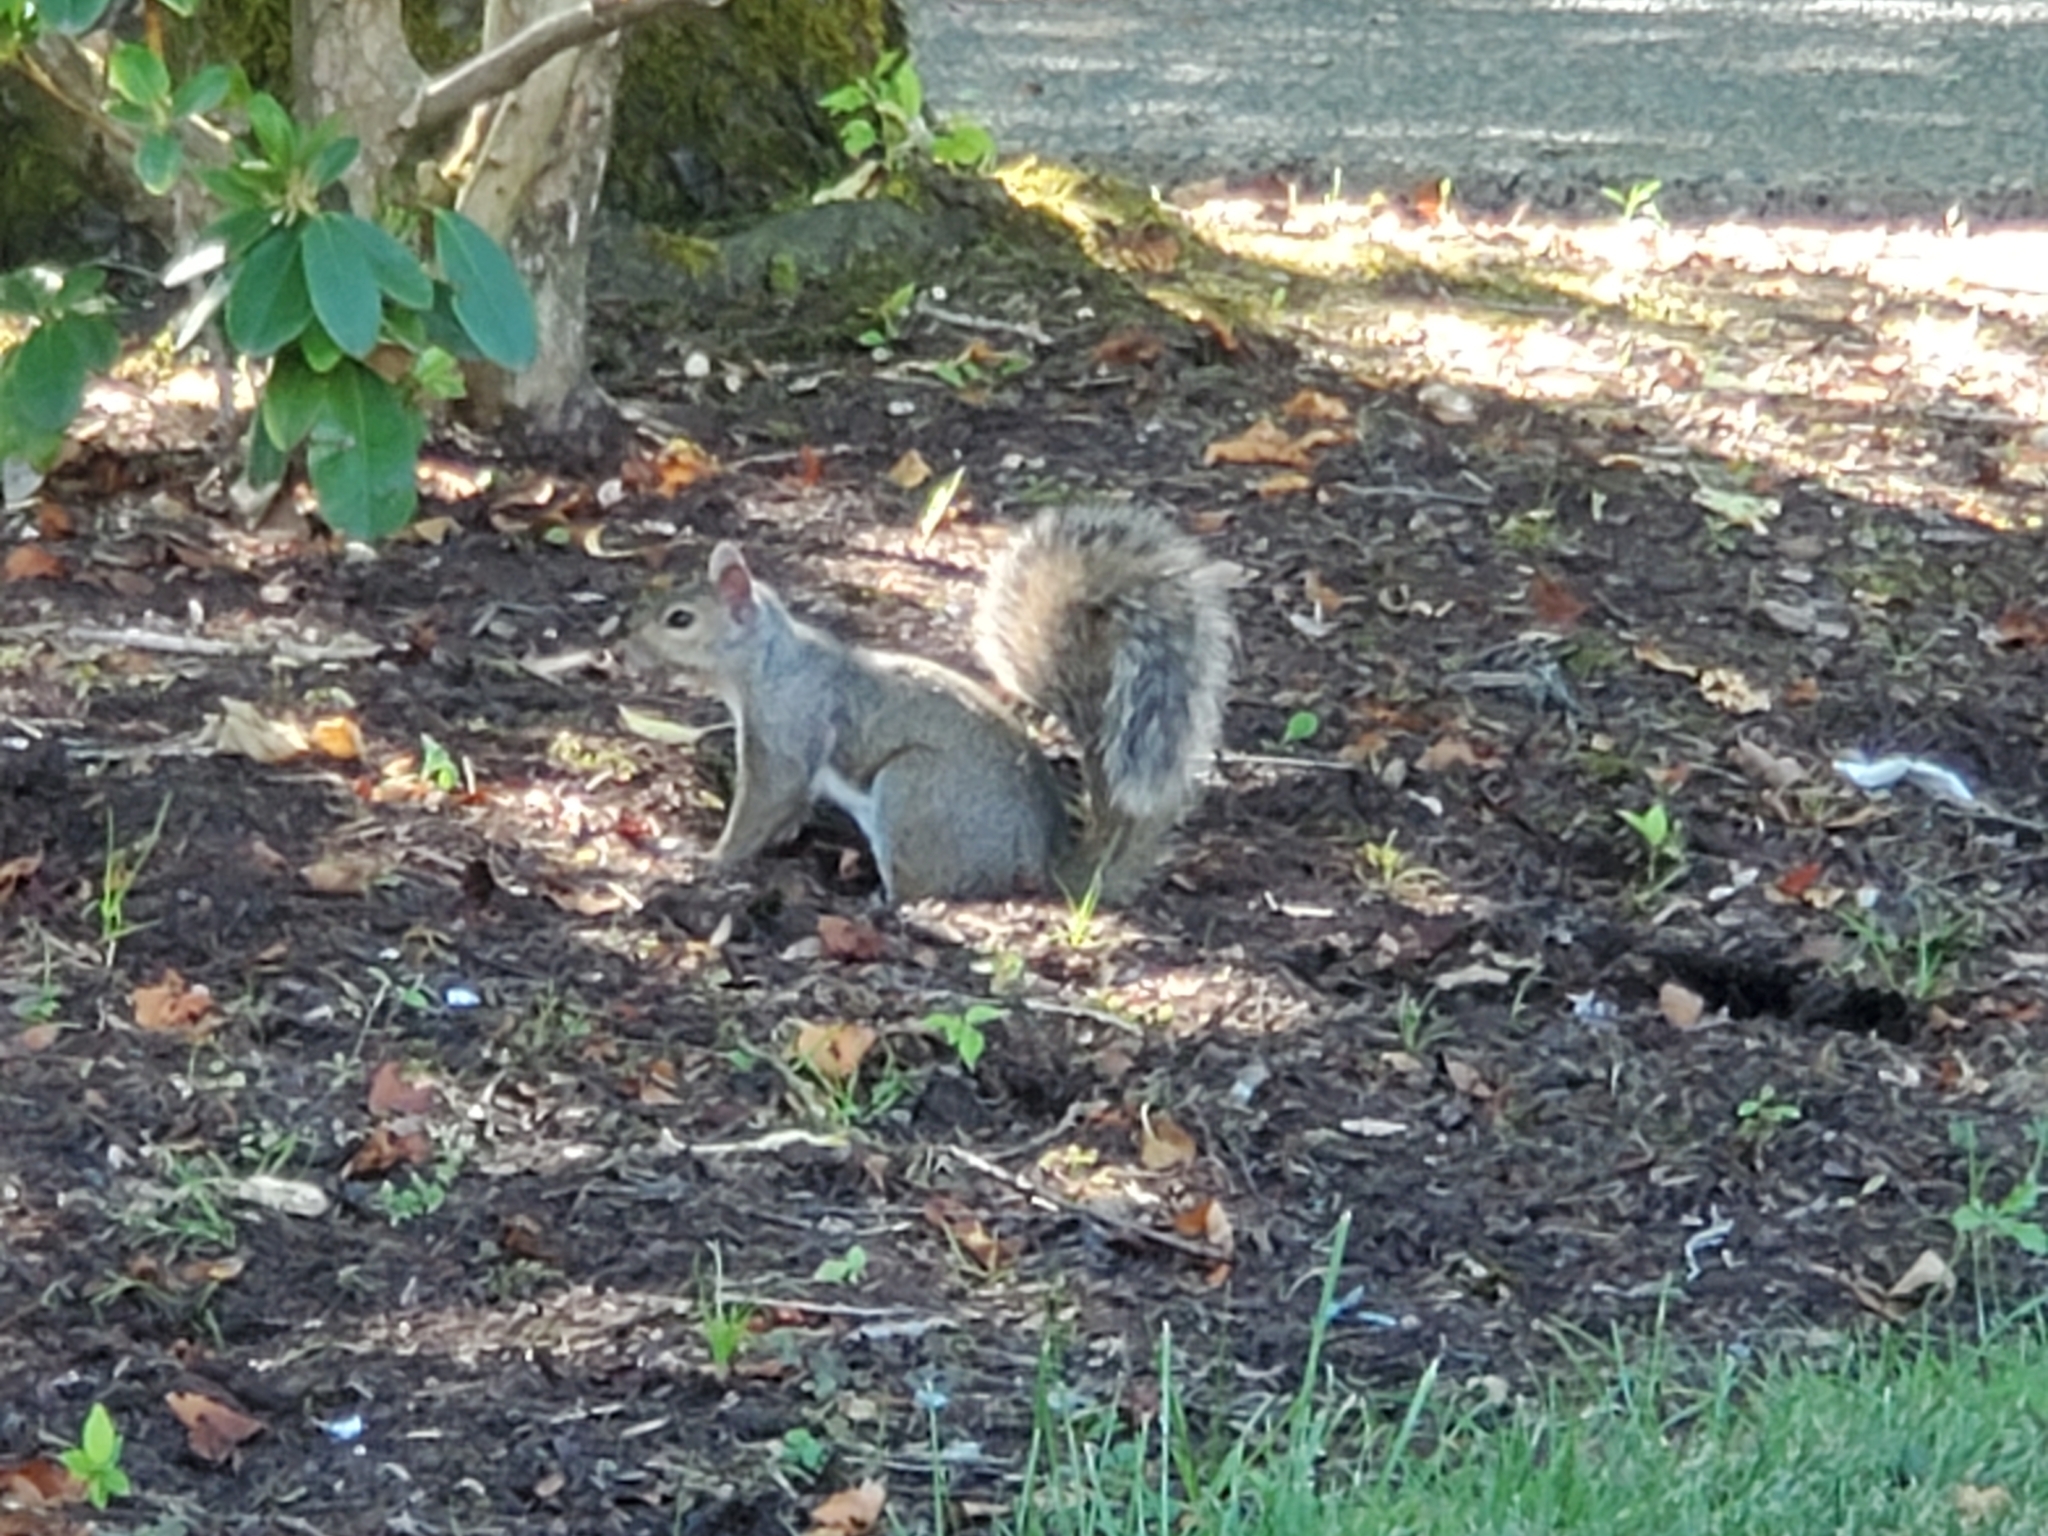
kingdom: Animalia
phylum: Chordata
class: Mammalia
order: Rodentia
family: Sciuridae
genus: Sciurus
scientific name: Sciurus carolinensis
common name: Eastern gray squirrel
